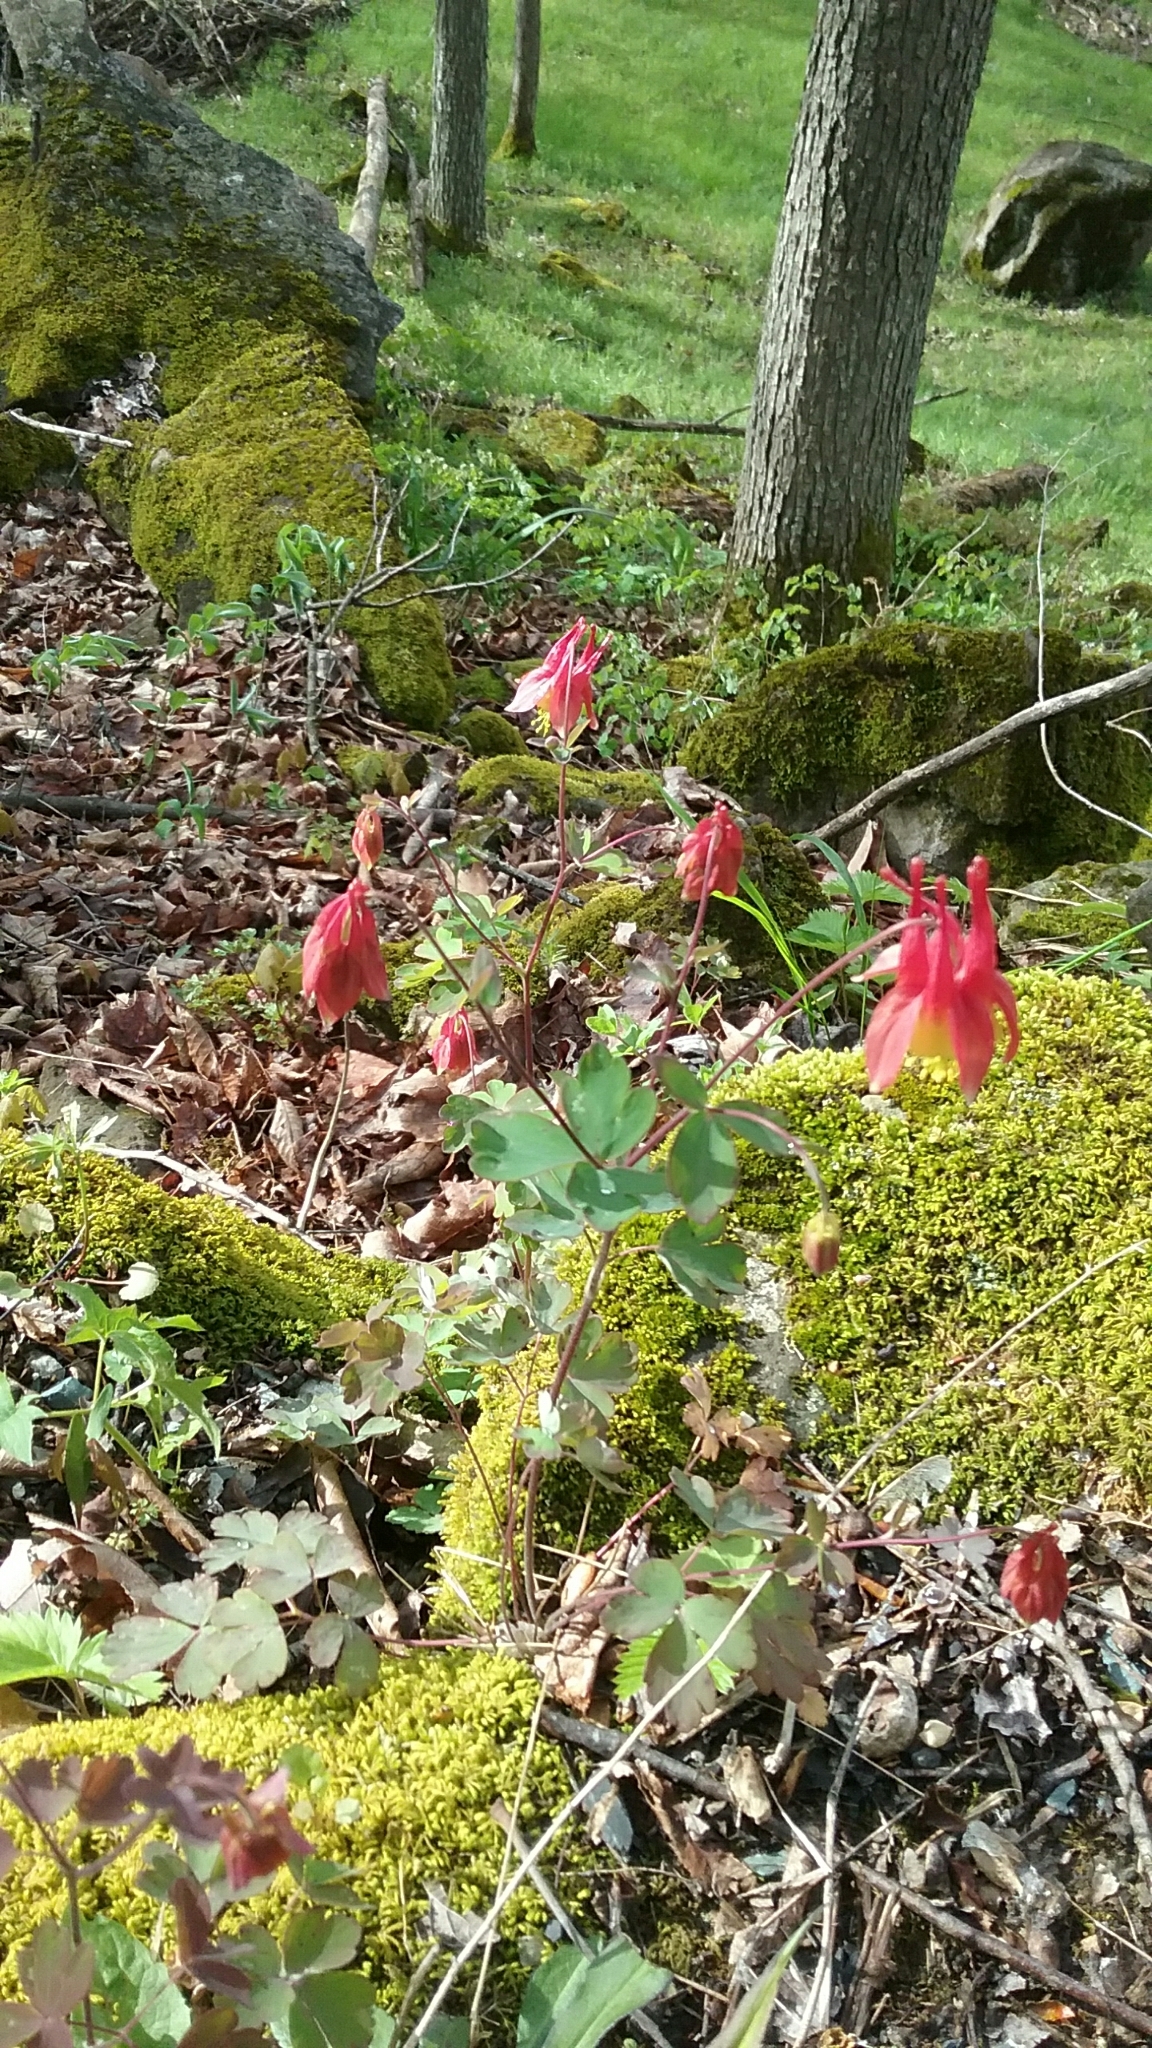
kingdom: Plantae
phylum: Tracheophyta
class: Magnoliopsida
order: Ranunculales
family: Ranunculaceae
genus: Aquilegia
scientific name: Aquilegia canadensis
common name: American columbine
